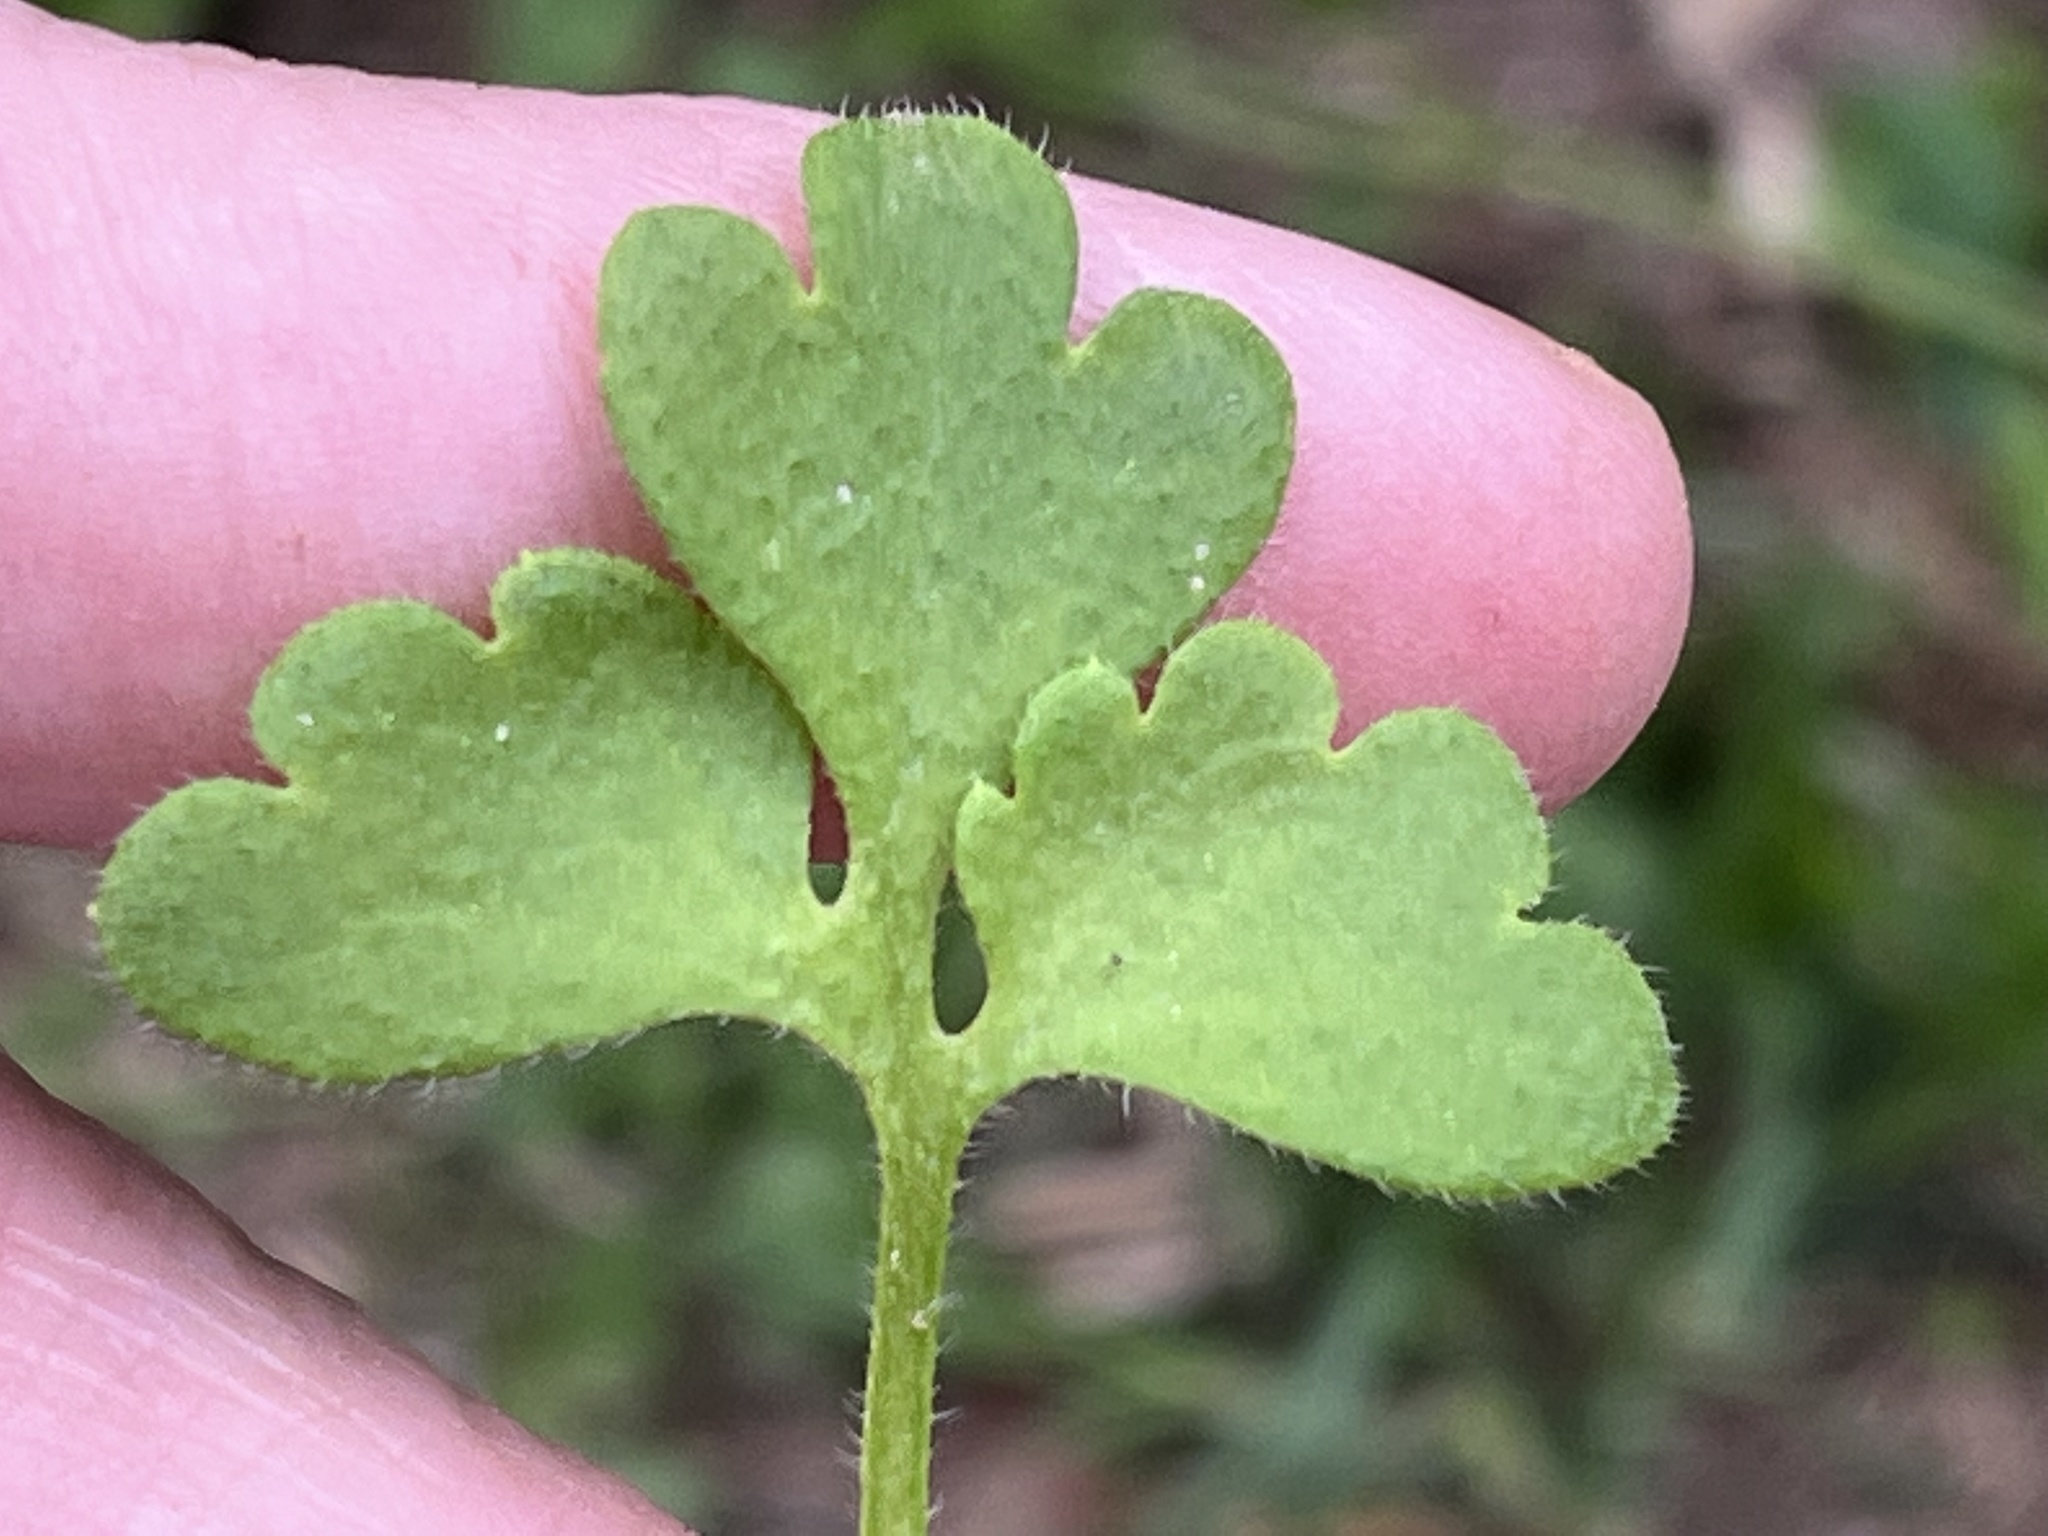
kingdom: Plantae
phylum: Tracheophyta
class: Magnoliopsida
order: Boraginales
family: Hydrophyllaceae
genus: Nemophila
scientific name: Nemophila aphylla
